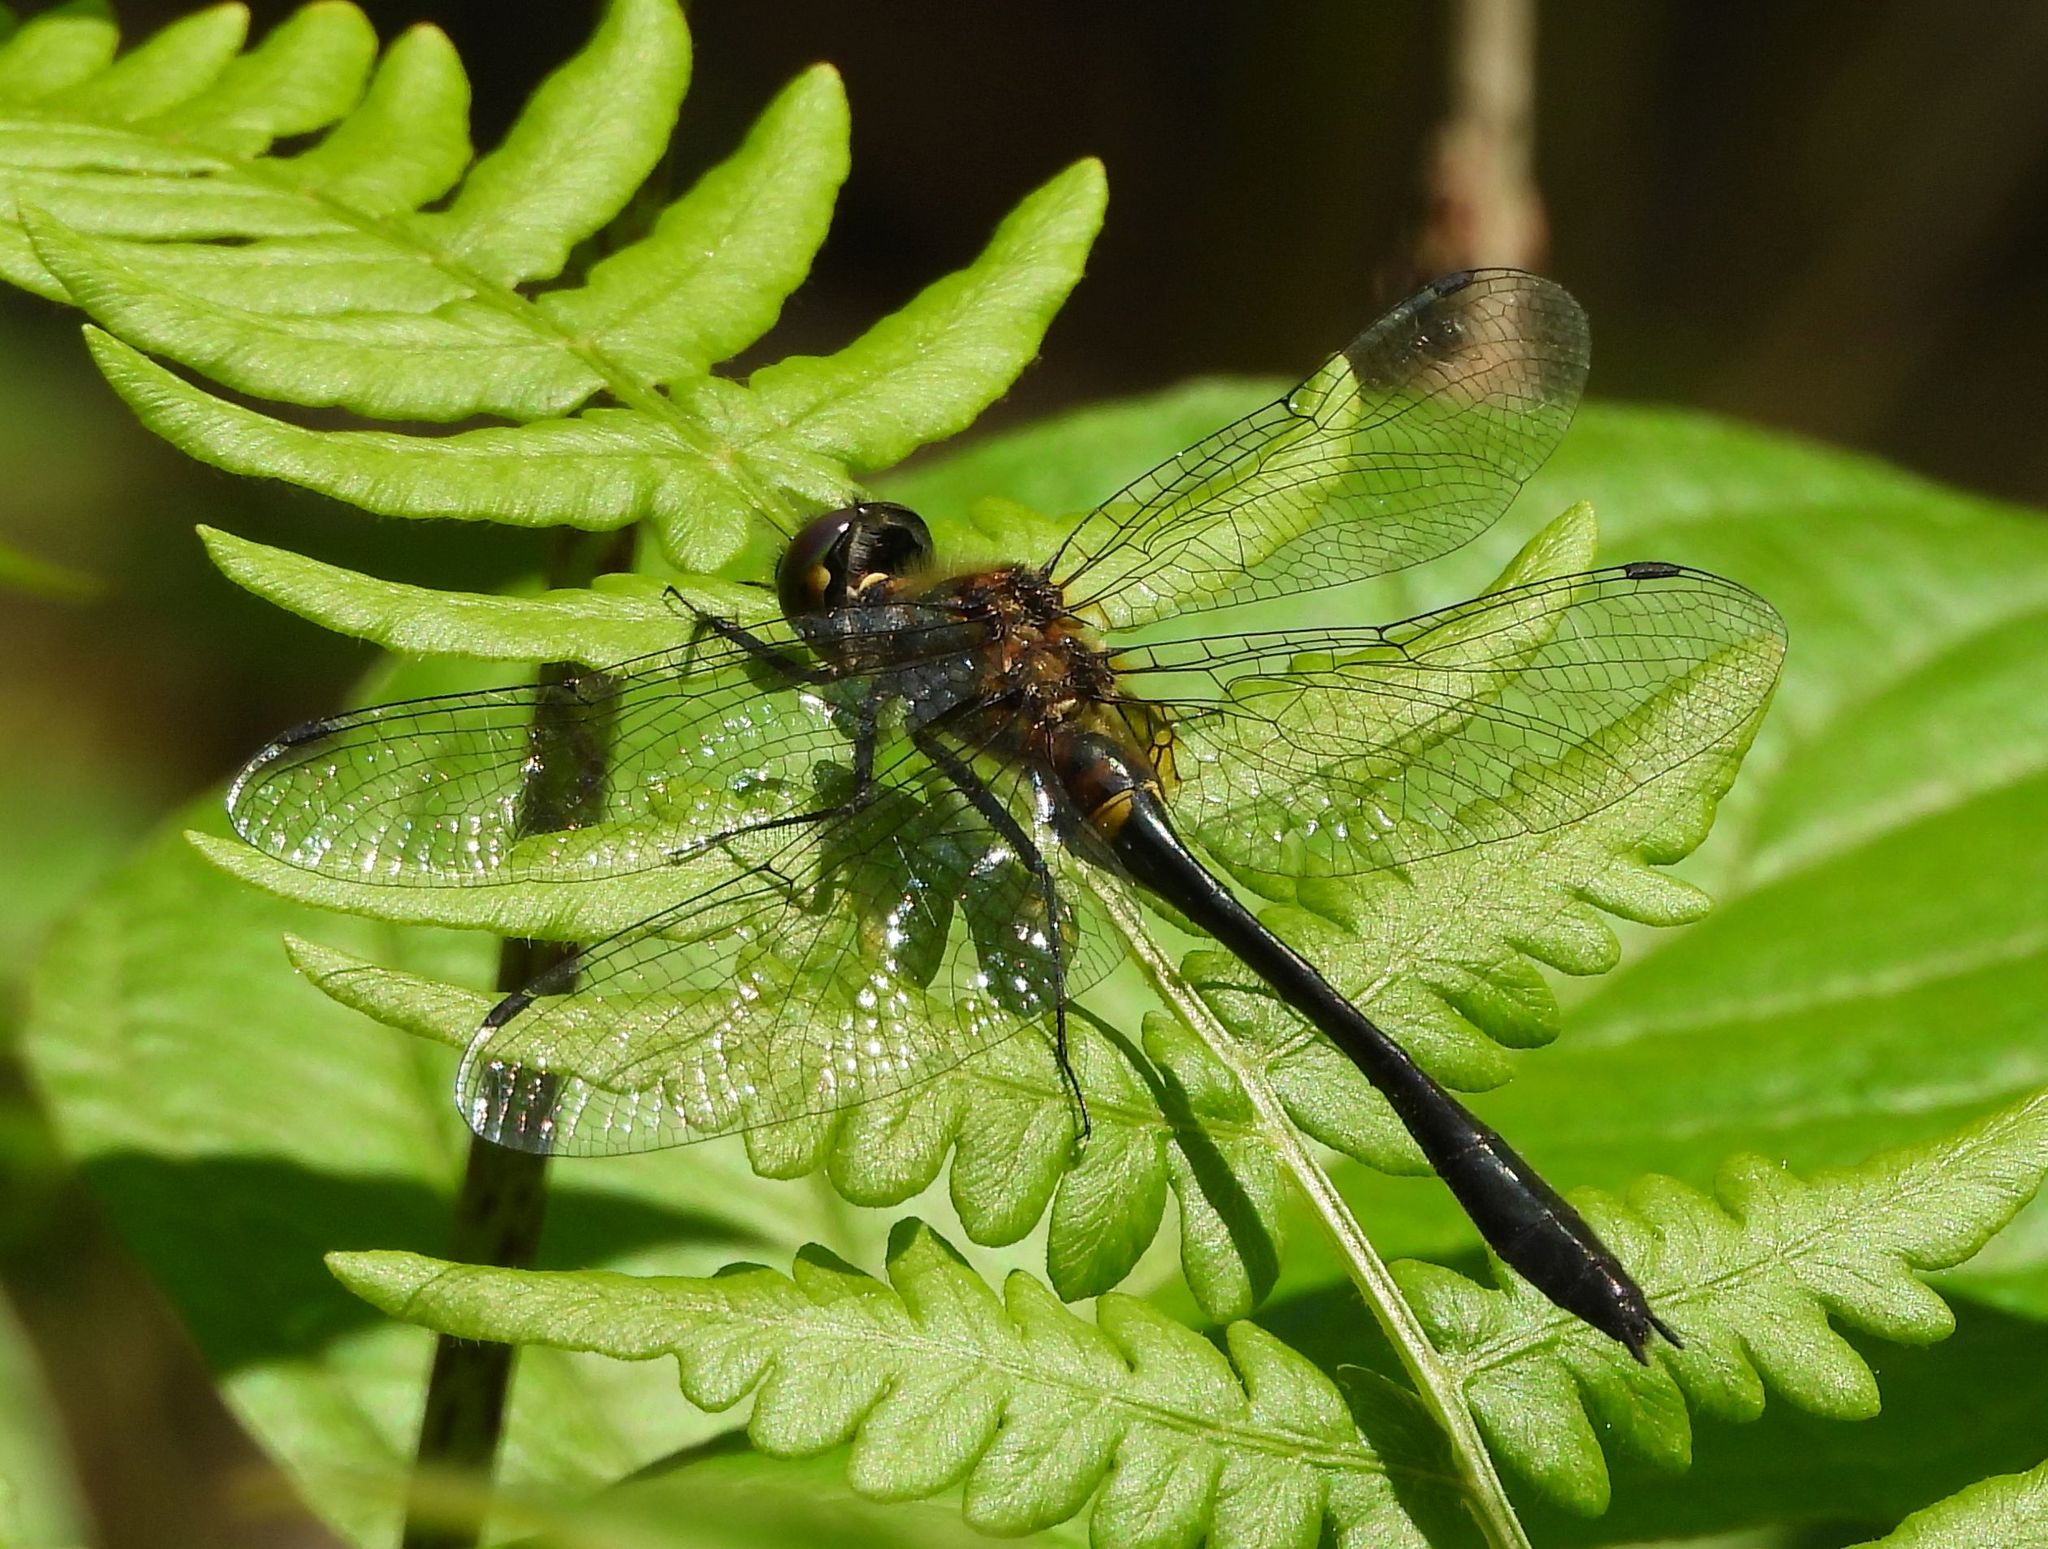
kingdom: Animalia
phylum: Arthropoda
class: Insecta
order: Odonata
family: Corduliidae
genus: Dorocordulia
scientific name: Dorocordulia libera
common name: Racket-tailed emerald
